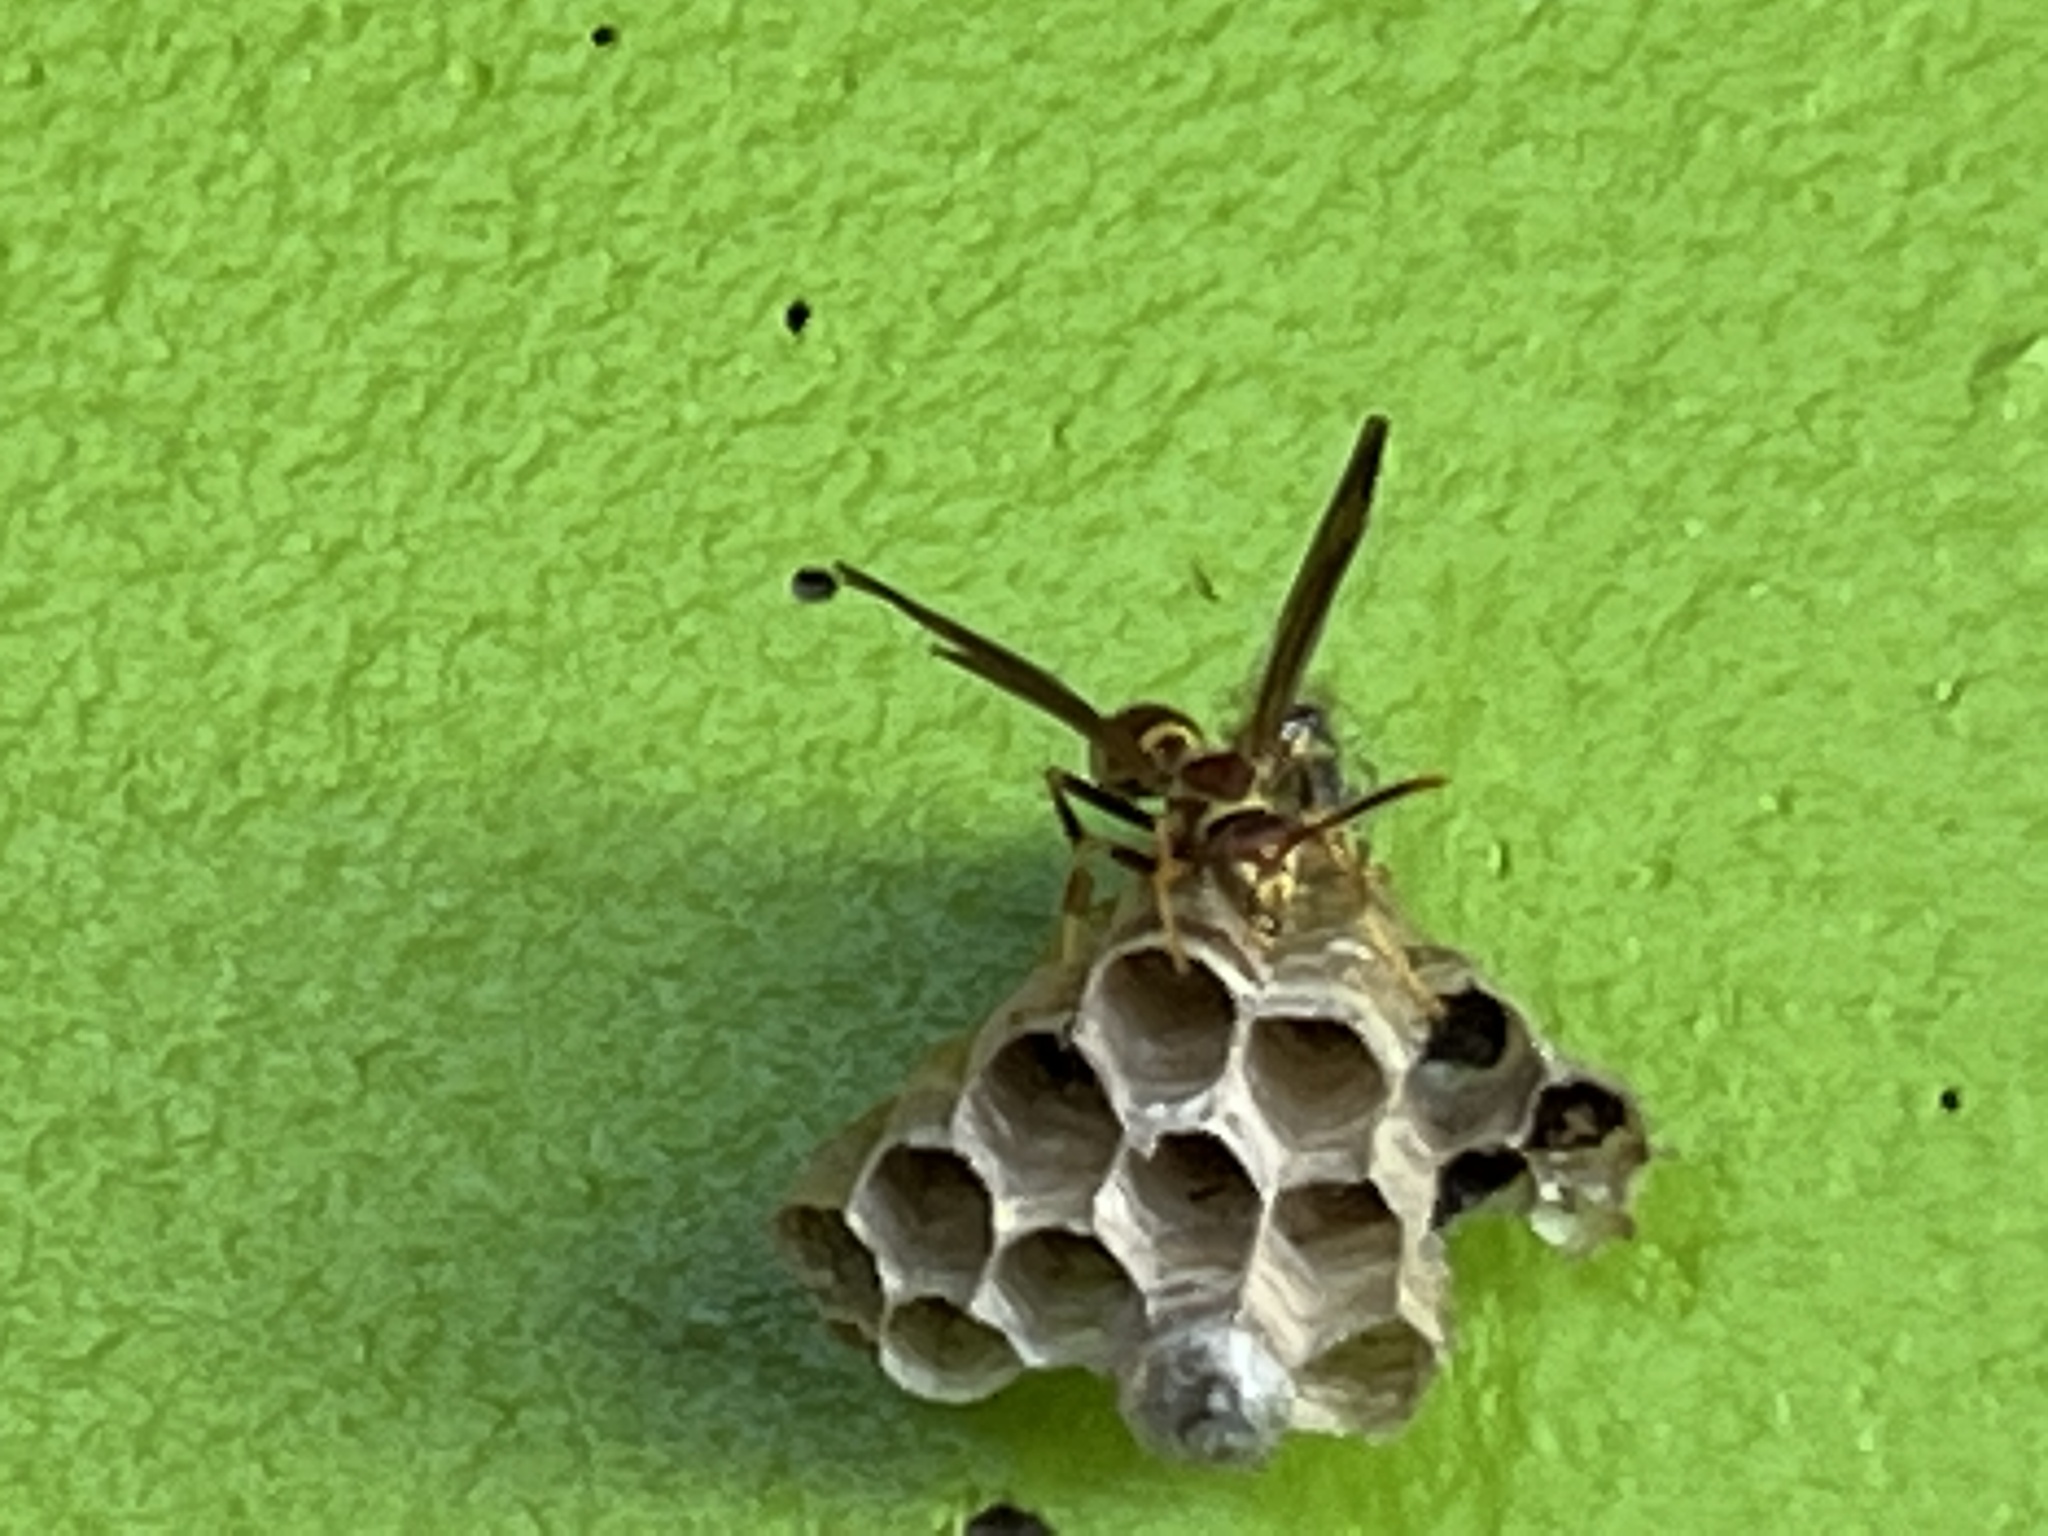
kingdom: Animalia
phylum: Arthropoda
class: Insecta
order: Hymenoptera
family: Eumenidae
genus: Polistes
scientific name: Polistes exclamans
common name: Paper wasp
